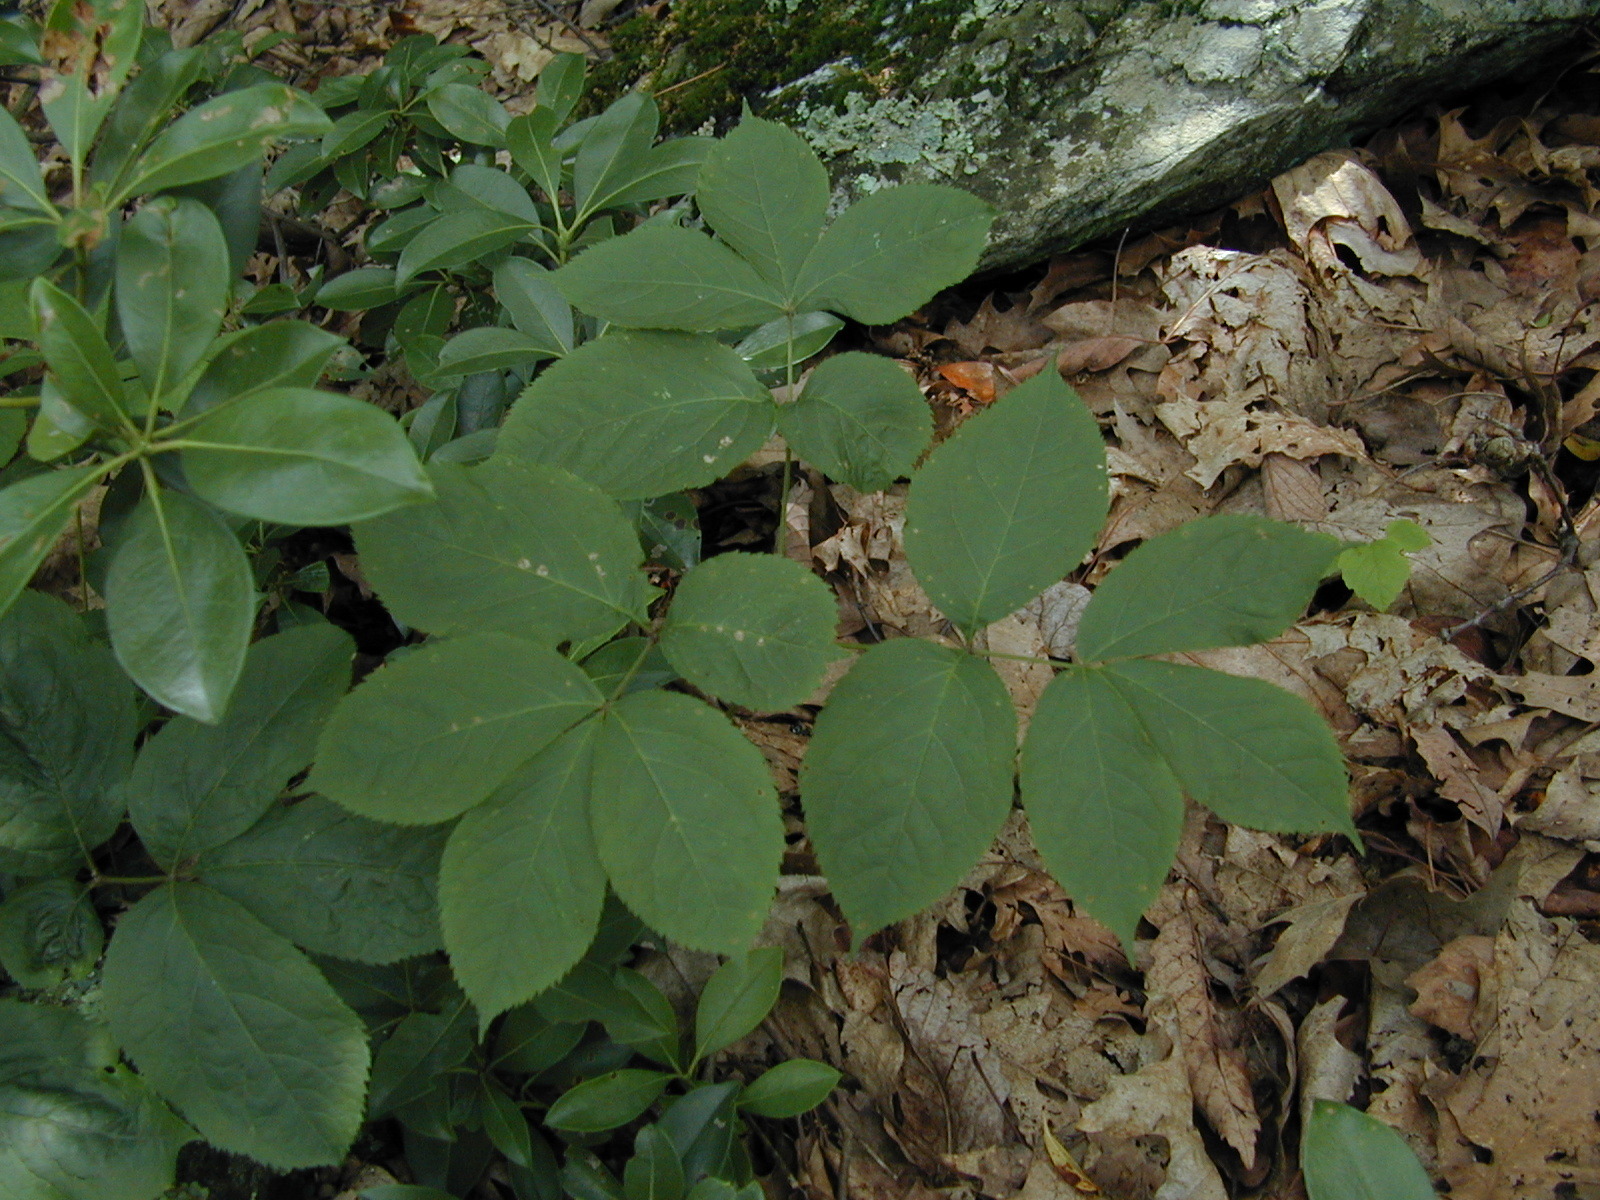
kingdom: Plantae
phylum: Tracheophyta
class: Magnoliopsida
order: Apiales
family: Araliaceae
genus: Aralia
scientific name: Aralia nudicaulis
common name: Wild sarsaparilla
